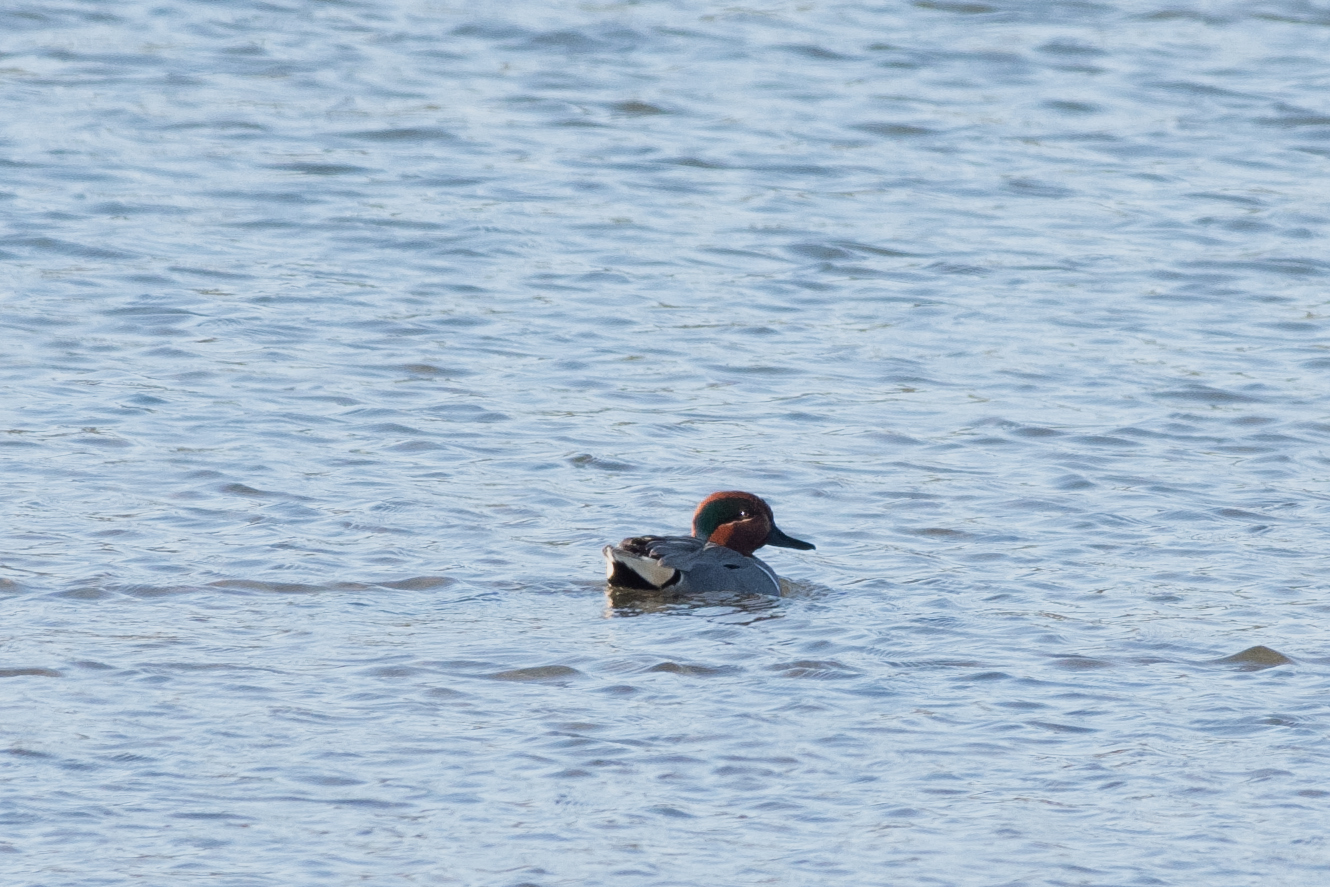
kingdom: Animalia
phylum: Chordata
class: Aves
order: Anseriformes
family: Anatidae
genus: Anas
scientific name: Anas crecca
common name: Eurasian teal
